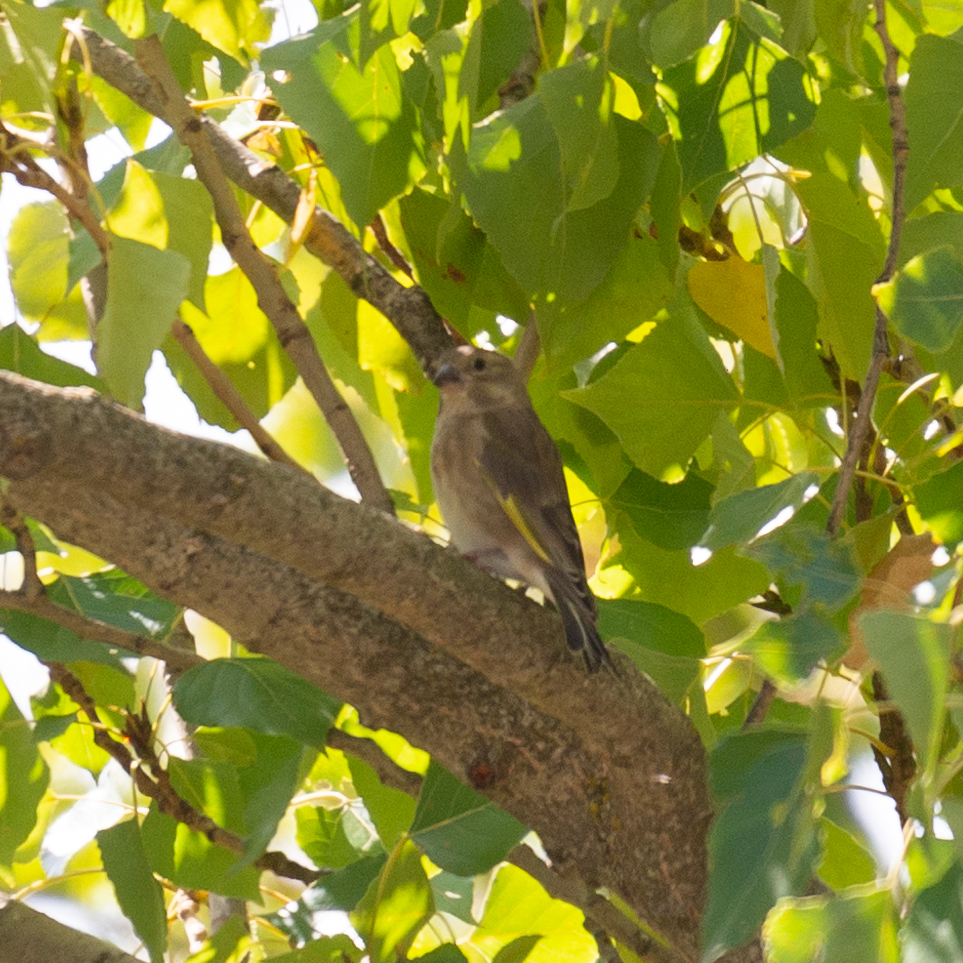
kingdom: Plantae
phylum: Tracheophyta
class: Liliopsida
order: Poales
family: Poaceae
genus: Chloris
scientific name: Chloris chloris
